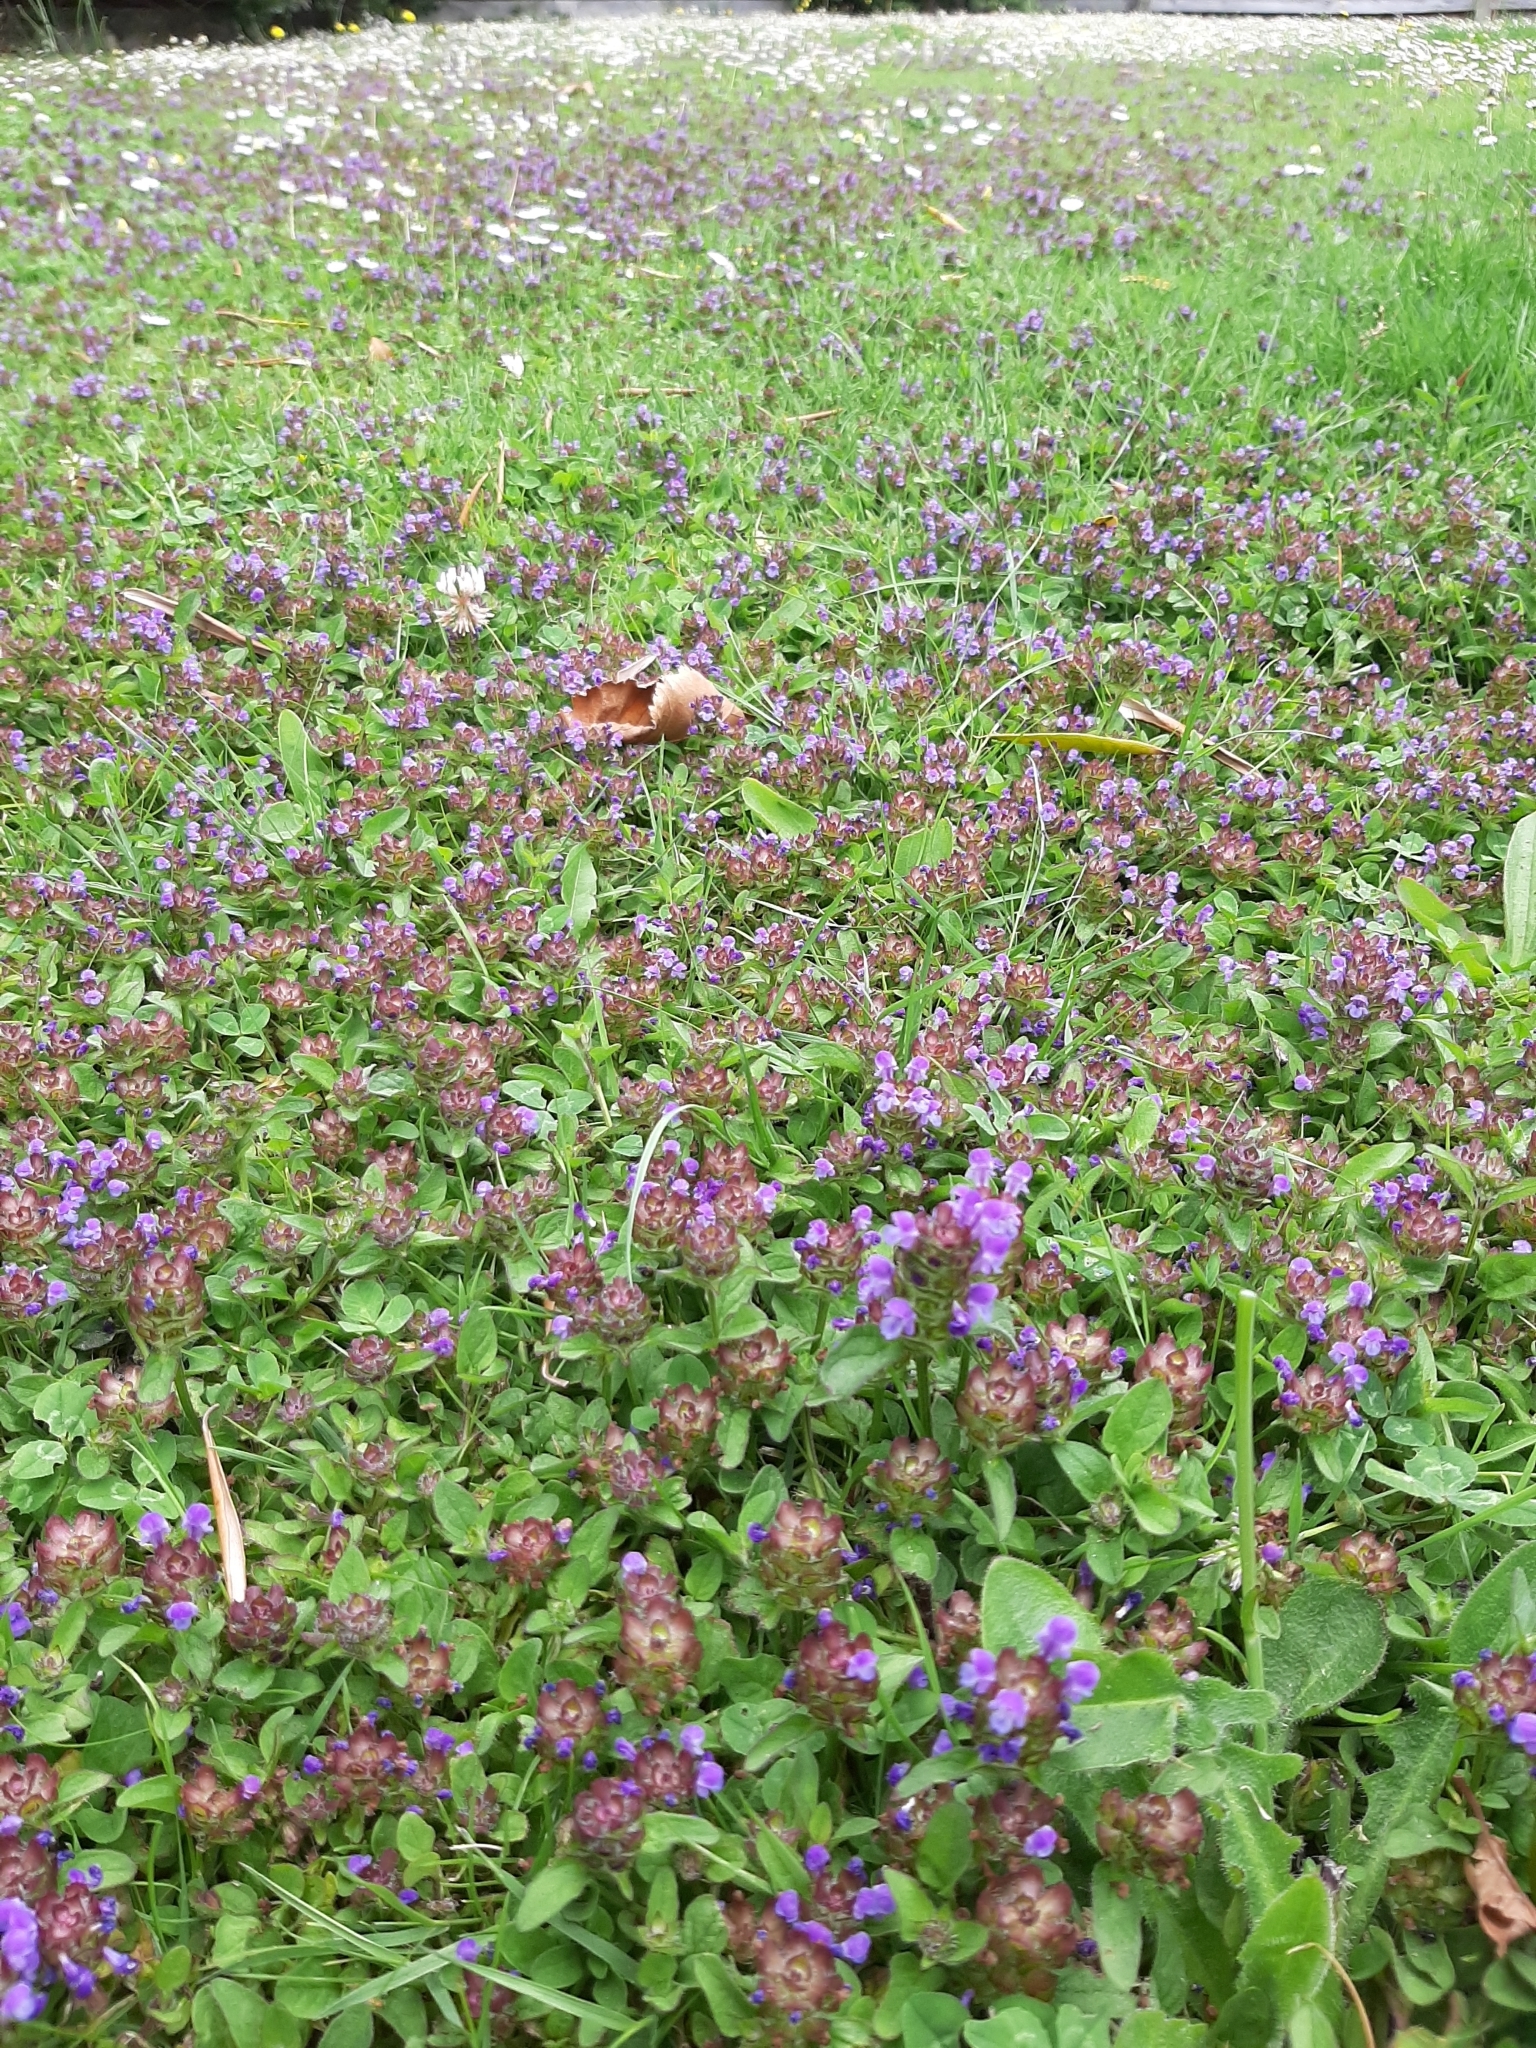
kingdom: Plantae
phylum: Tracheophyta
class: Magnoliopsida
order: Lamiales
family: Lamiaceae
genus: Prunella
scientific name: Prunella vulgaris
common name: Heal-all
